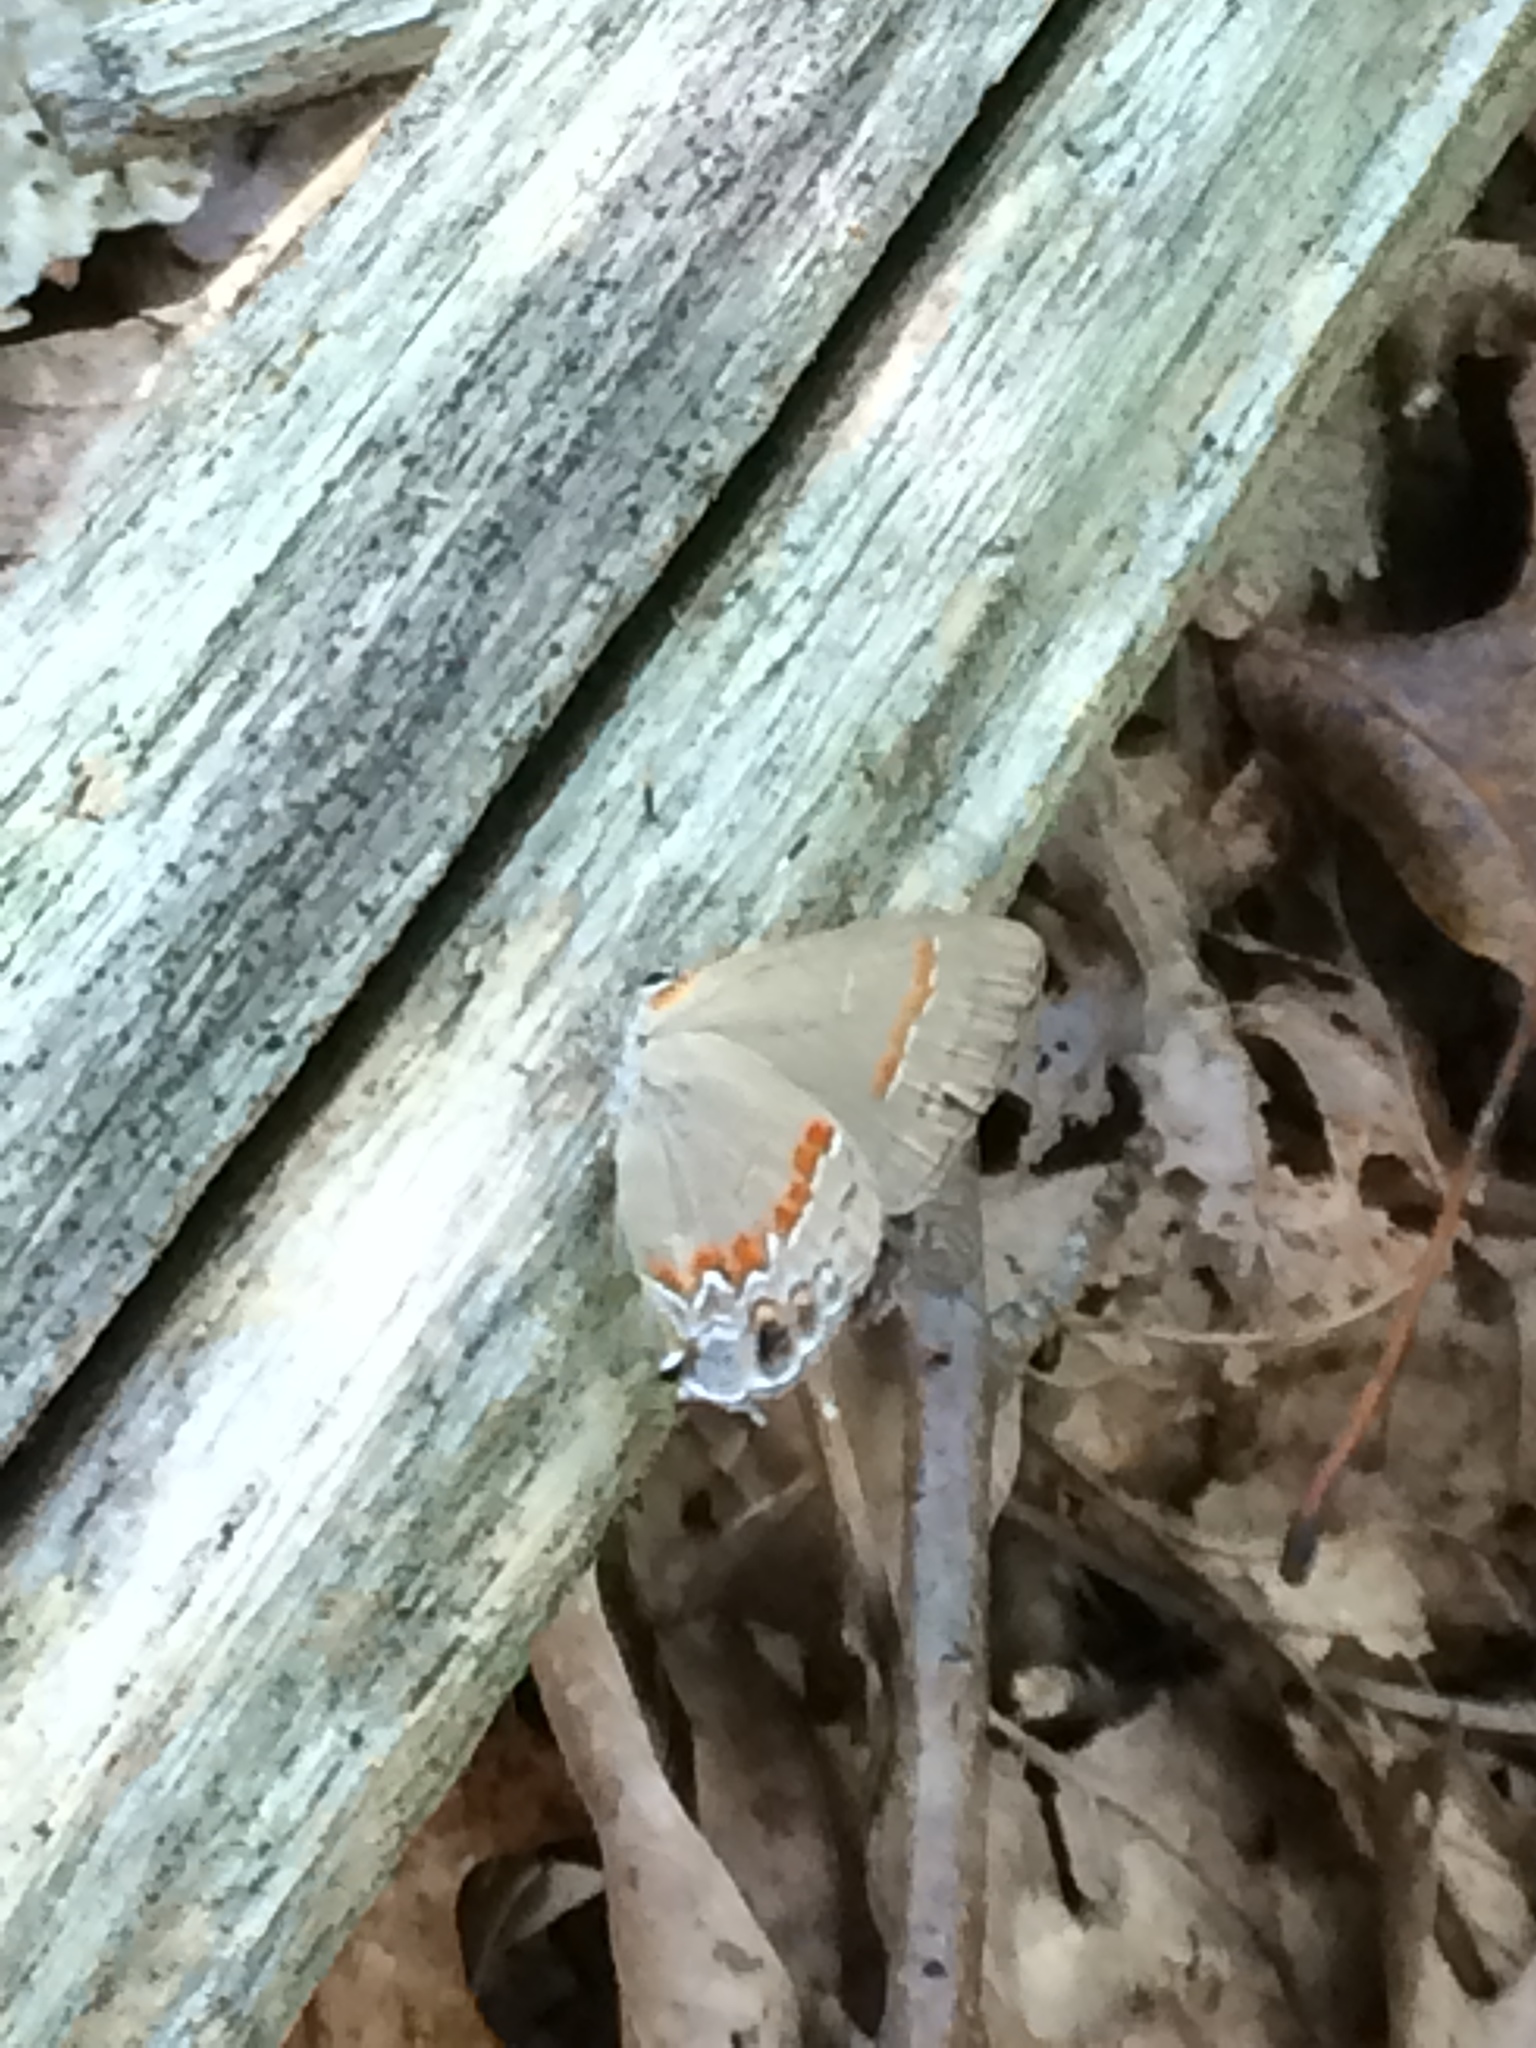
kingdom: Animalia
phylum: Arthropoda
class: Insecta
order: Lepidoptera
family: Lycaenidae
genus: Calycopis
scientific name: Calycopis cecrops
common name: Red-banded hairstreak
